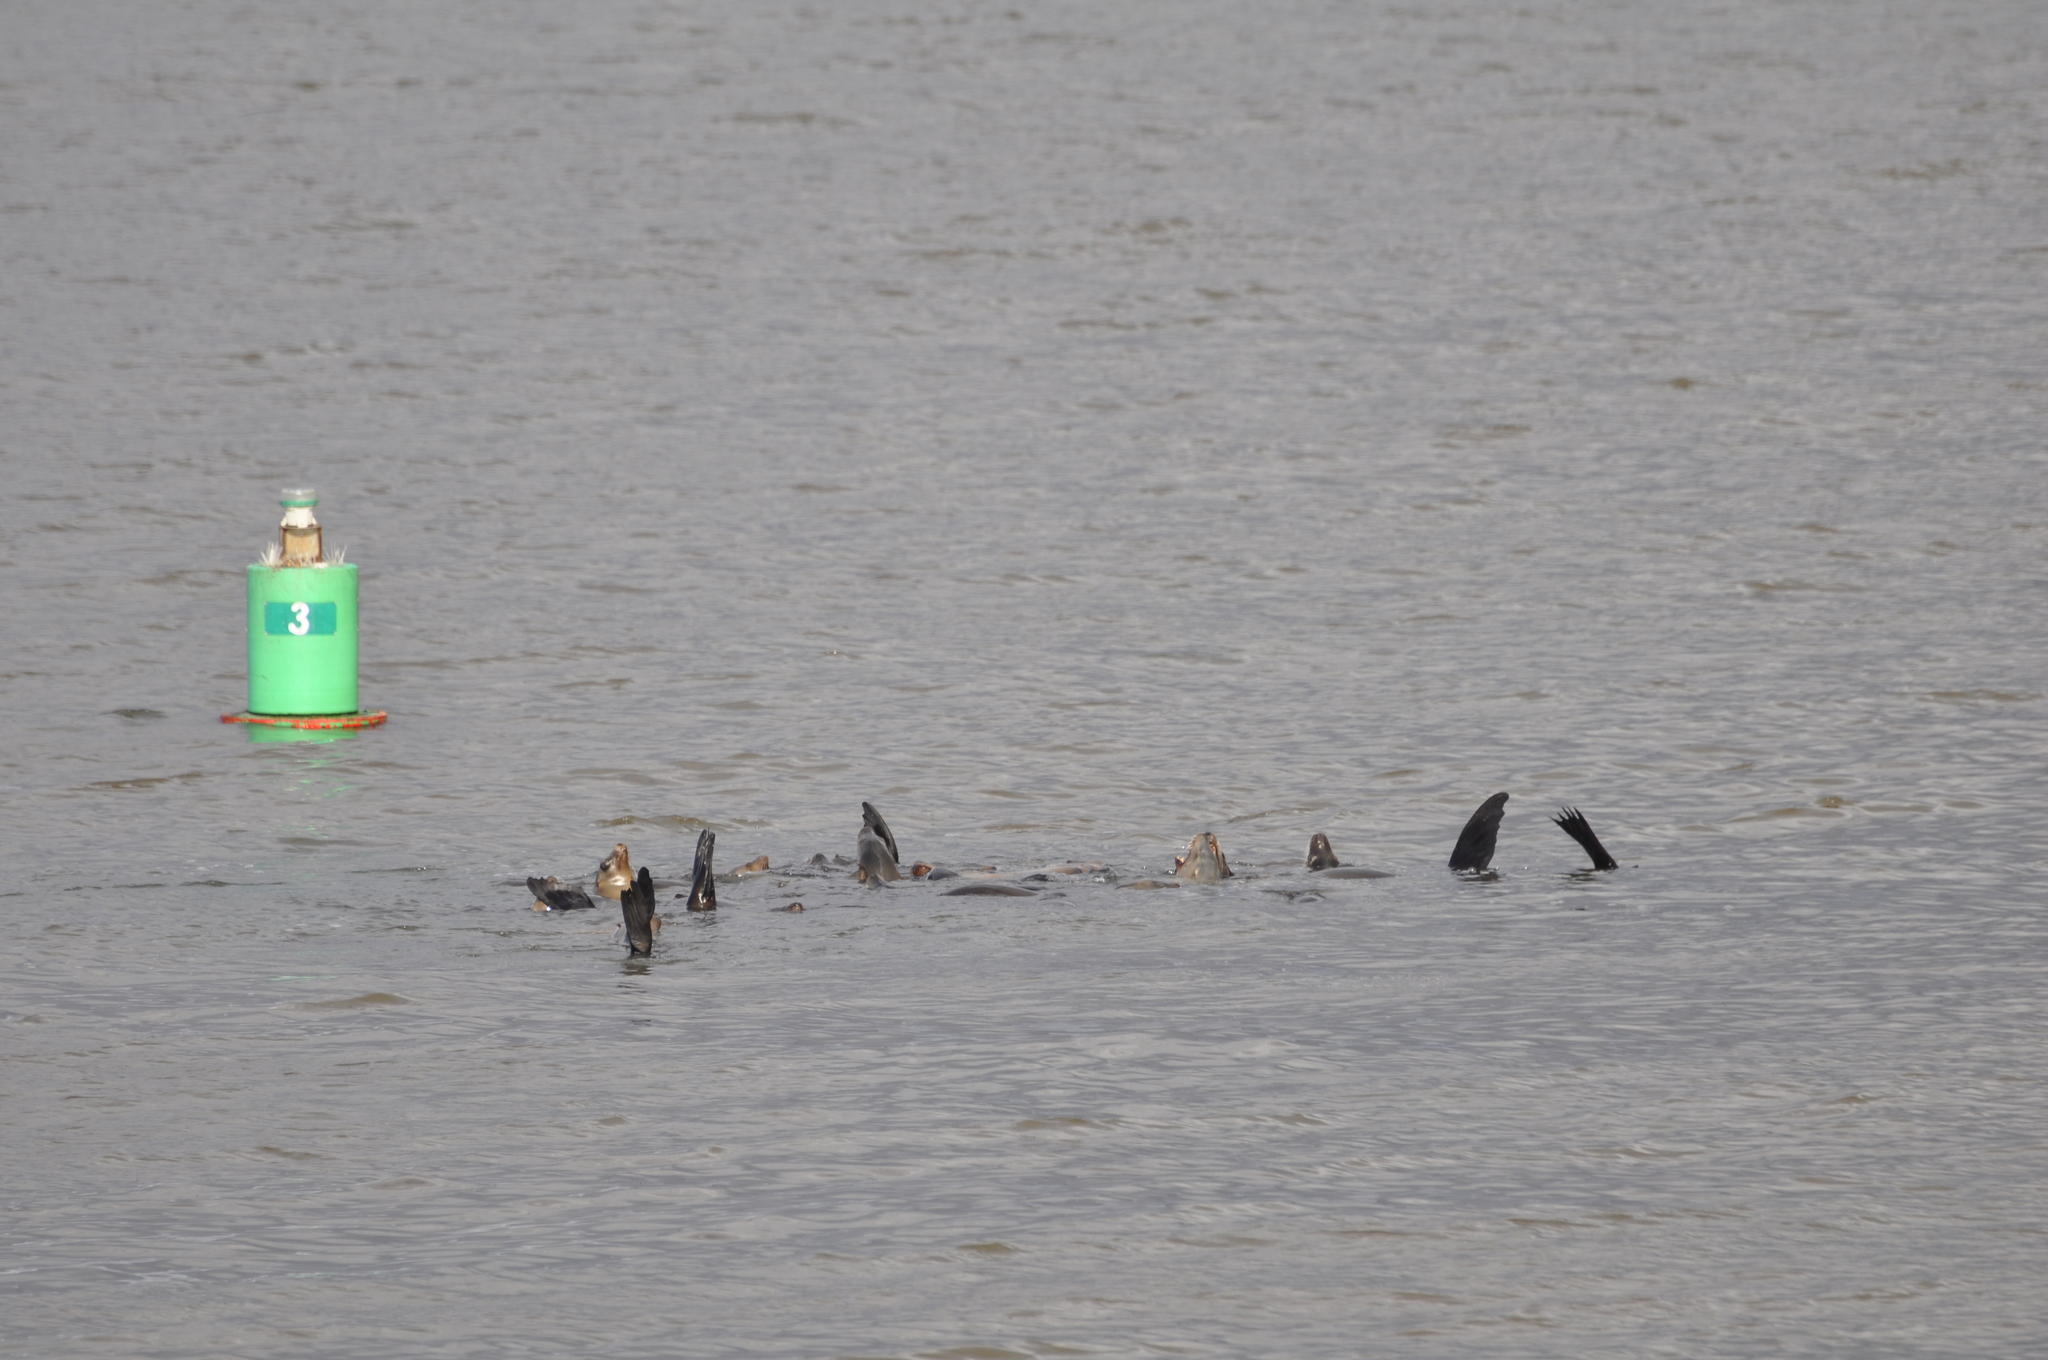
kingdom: Animalia
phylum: Chordata
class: Mammalia
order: Carnivora
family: Otariidae
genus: Zalophus
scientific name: Zalophus californianus
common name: California sea lion
